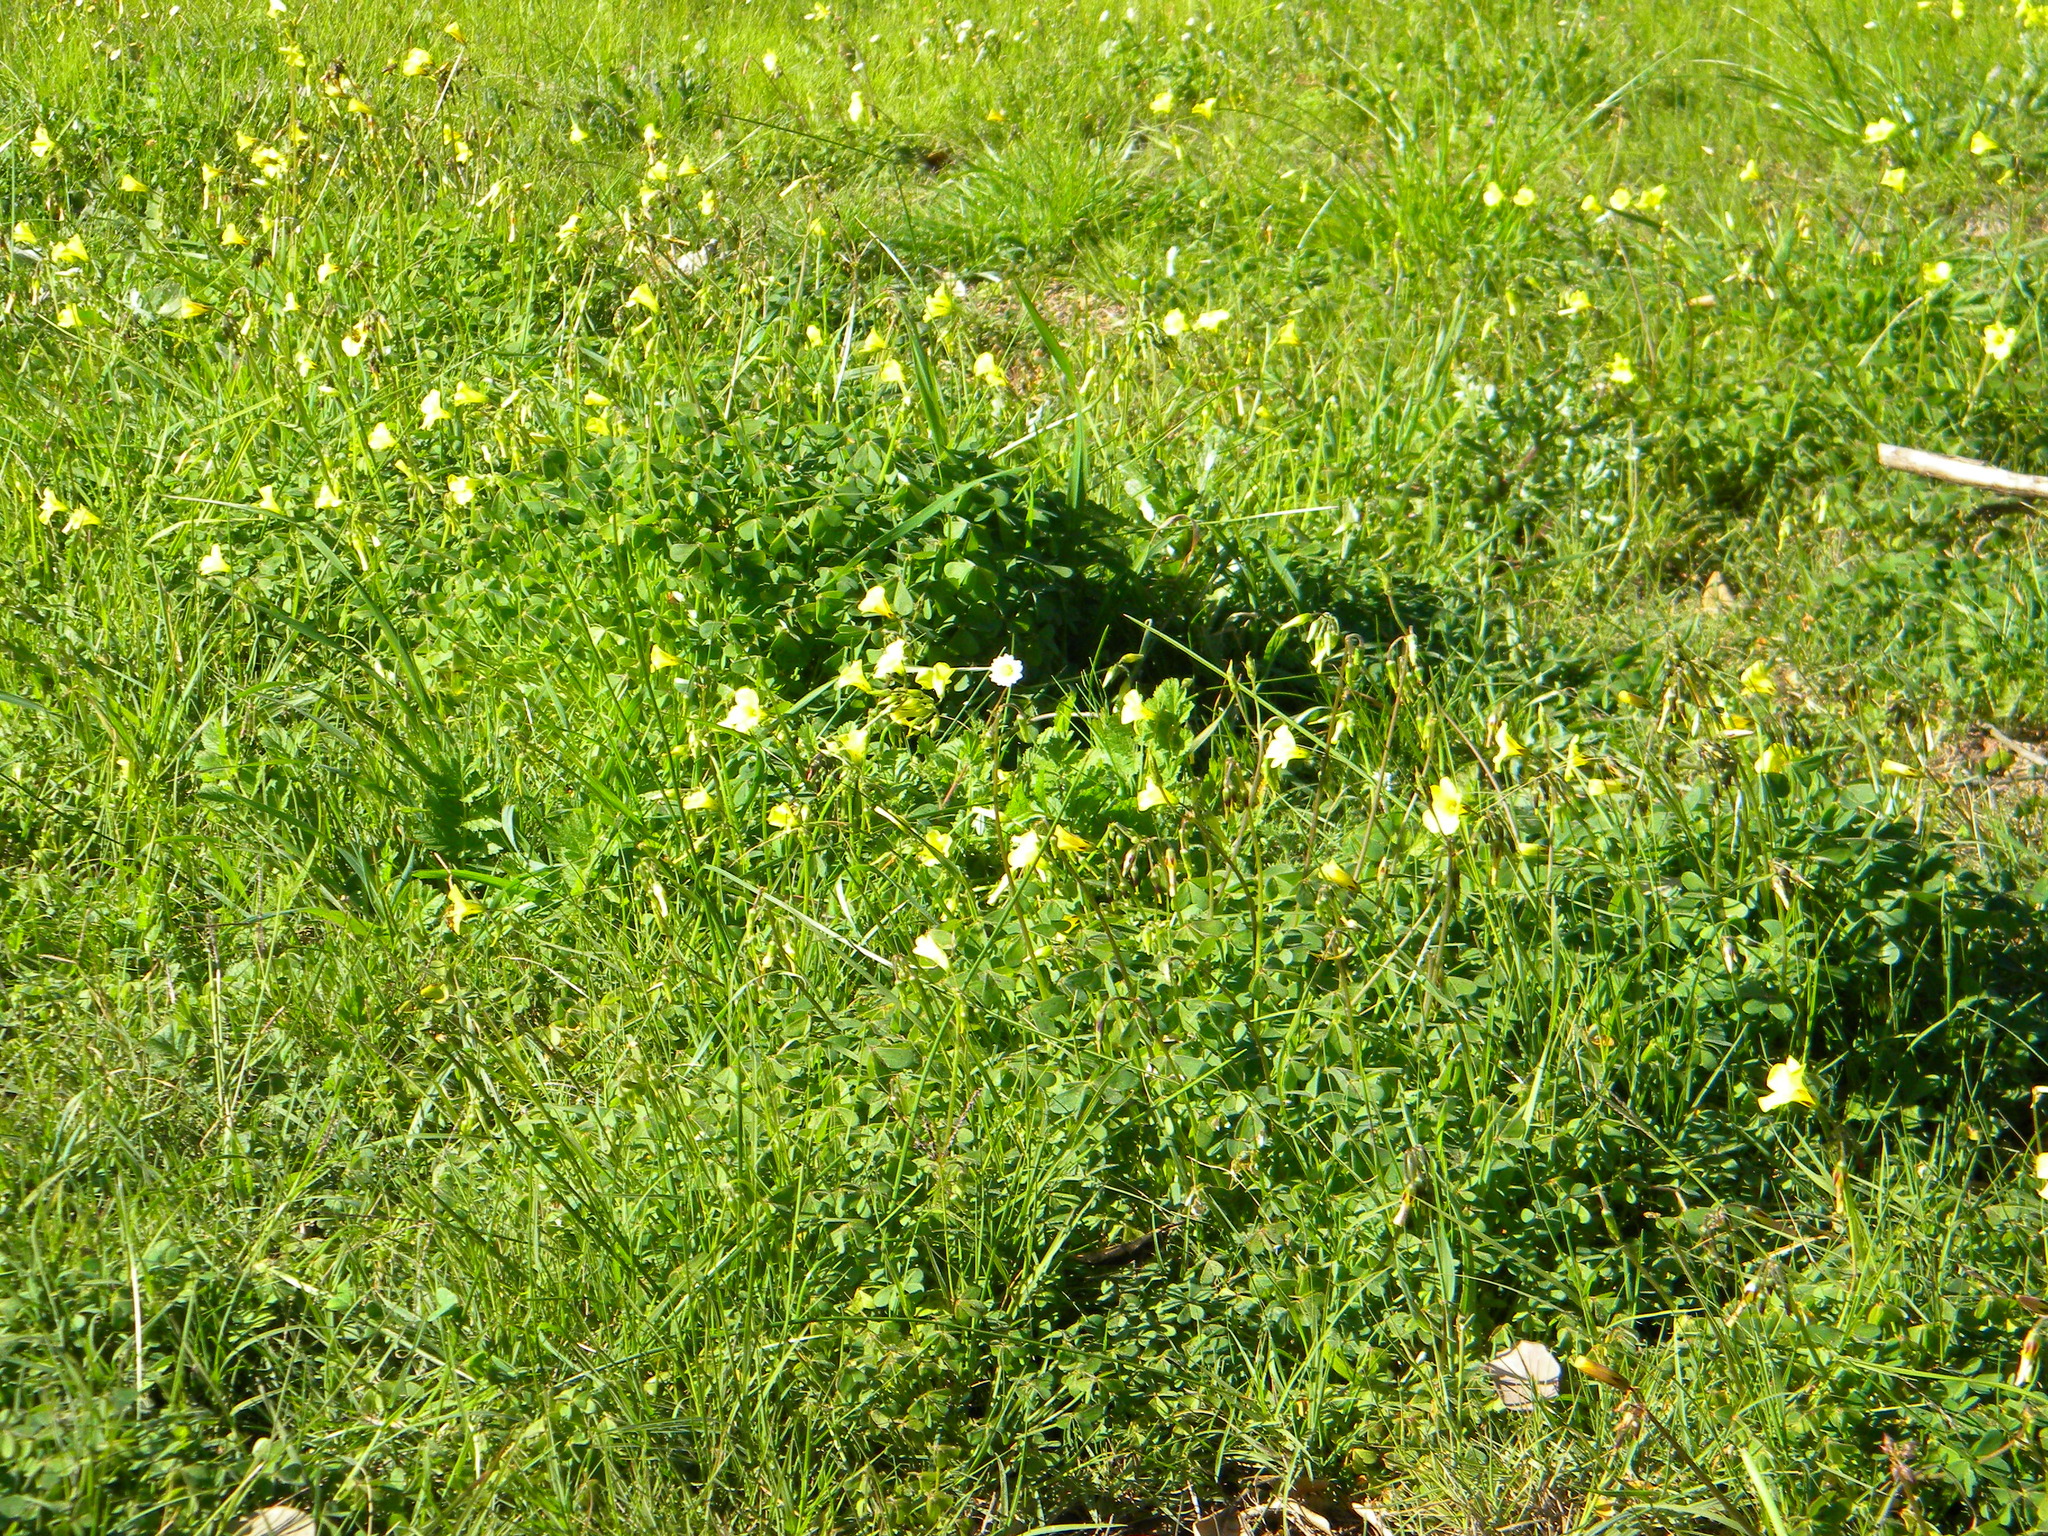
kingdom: Plantae
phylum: Tracheophyta
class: Magnoliopsida
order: Oxalidales
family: Oxalidaceae
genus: Oxalis
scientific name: Oxalis pes-caprae
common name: Bermuda-buttercup
